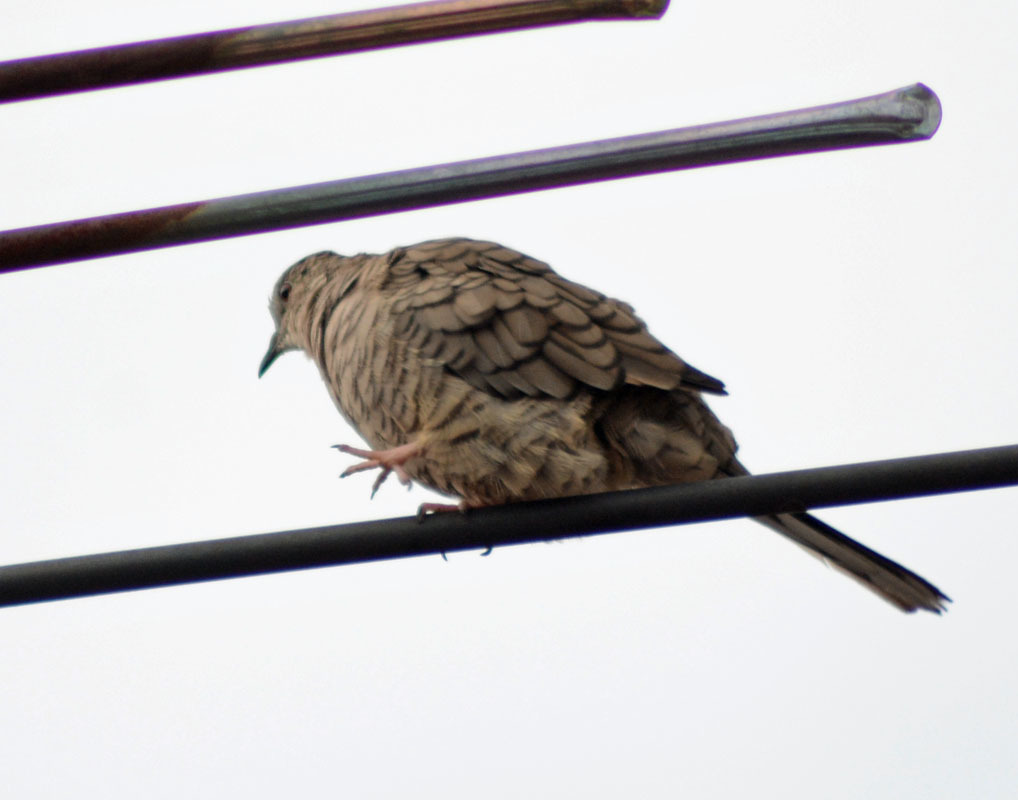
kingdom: Animalia
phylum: Chordata
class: Aves
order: Columbiformes
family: Columbidae
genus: Columbina
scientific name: Columbina inca
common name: Inca dove
